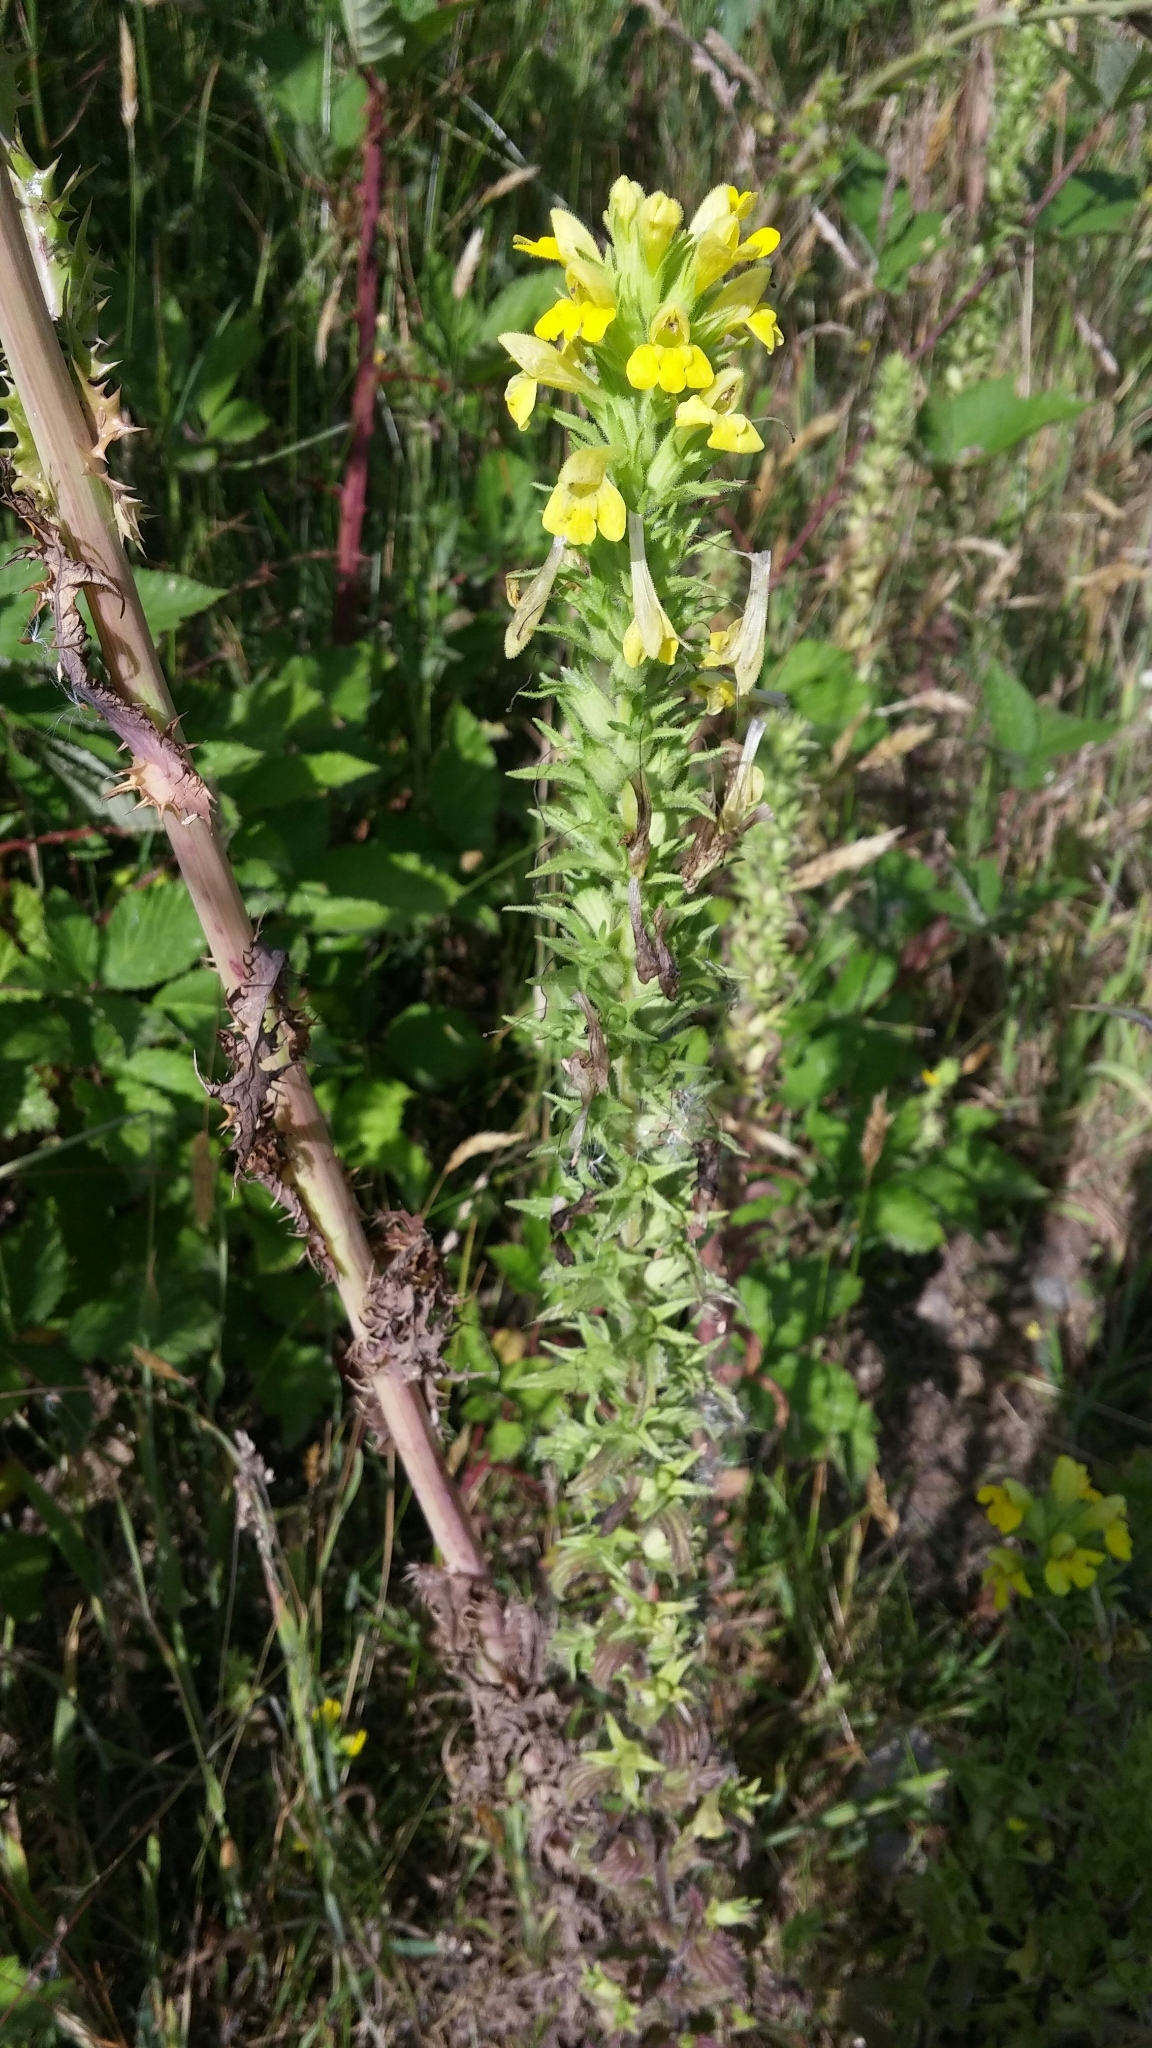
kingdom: Plantae
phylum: Tracheophyta
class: Magnoliopsida
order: Lamiales
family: Orobanchaceae
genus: Bellardia
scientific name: Bellardia viscosa
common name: Sticky parentucellia
